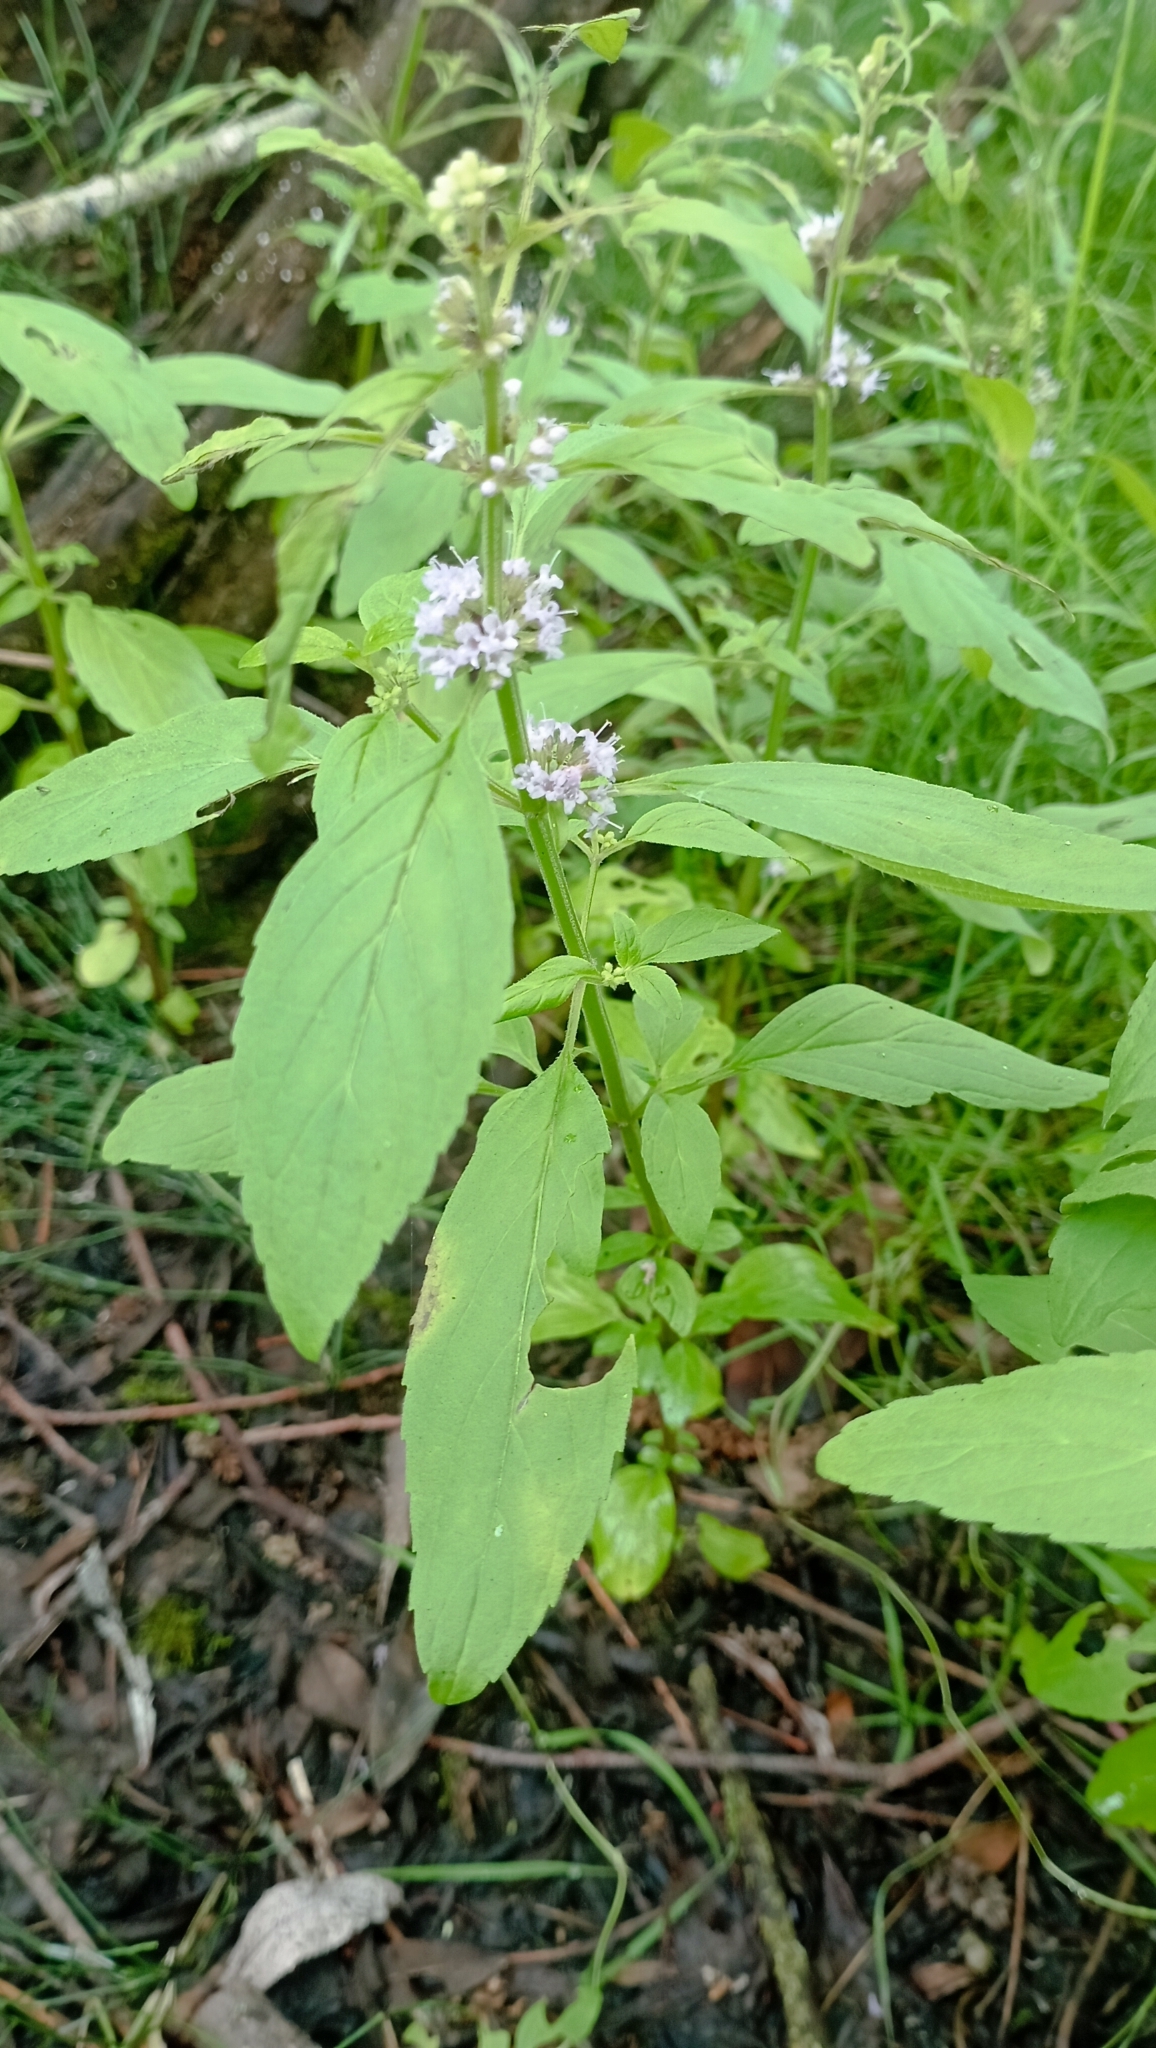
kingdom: Plantae
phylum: Tracheophyta
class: Magnoliopsida
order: Lamiales
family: Lamiaceae
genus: Mentha
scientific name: Mentha arvensis
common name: Corn mint
